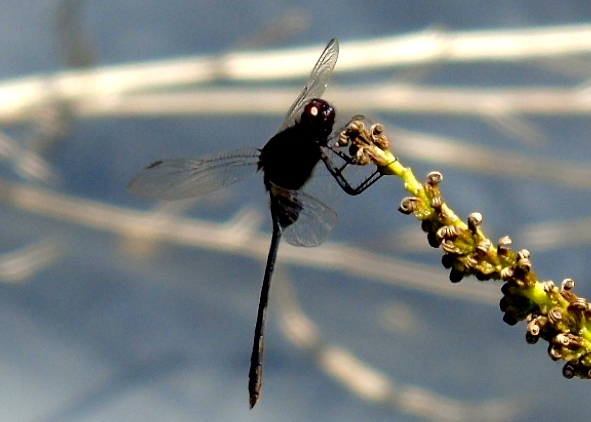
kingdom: Animalia
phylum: Arthropoda
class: Insecta
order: Odonata
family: Libellulidae
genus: Erythemis
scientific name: Erythemis plebeja
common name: Pin-tailed pondhawk
